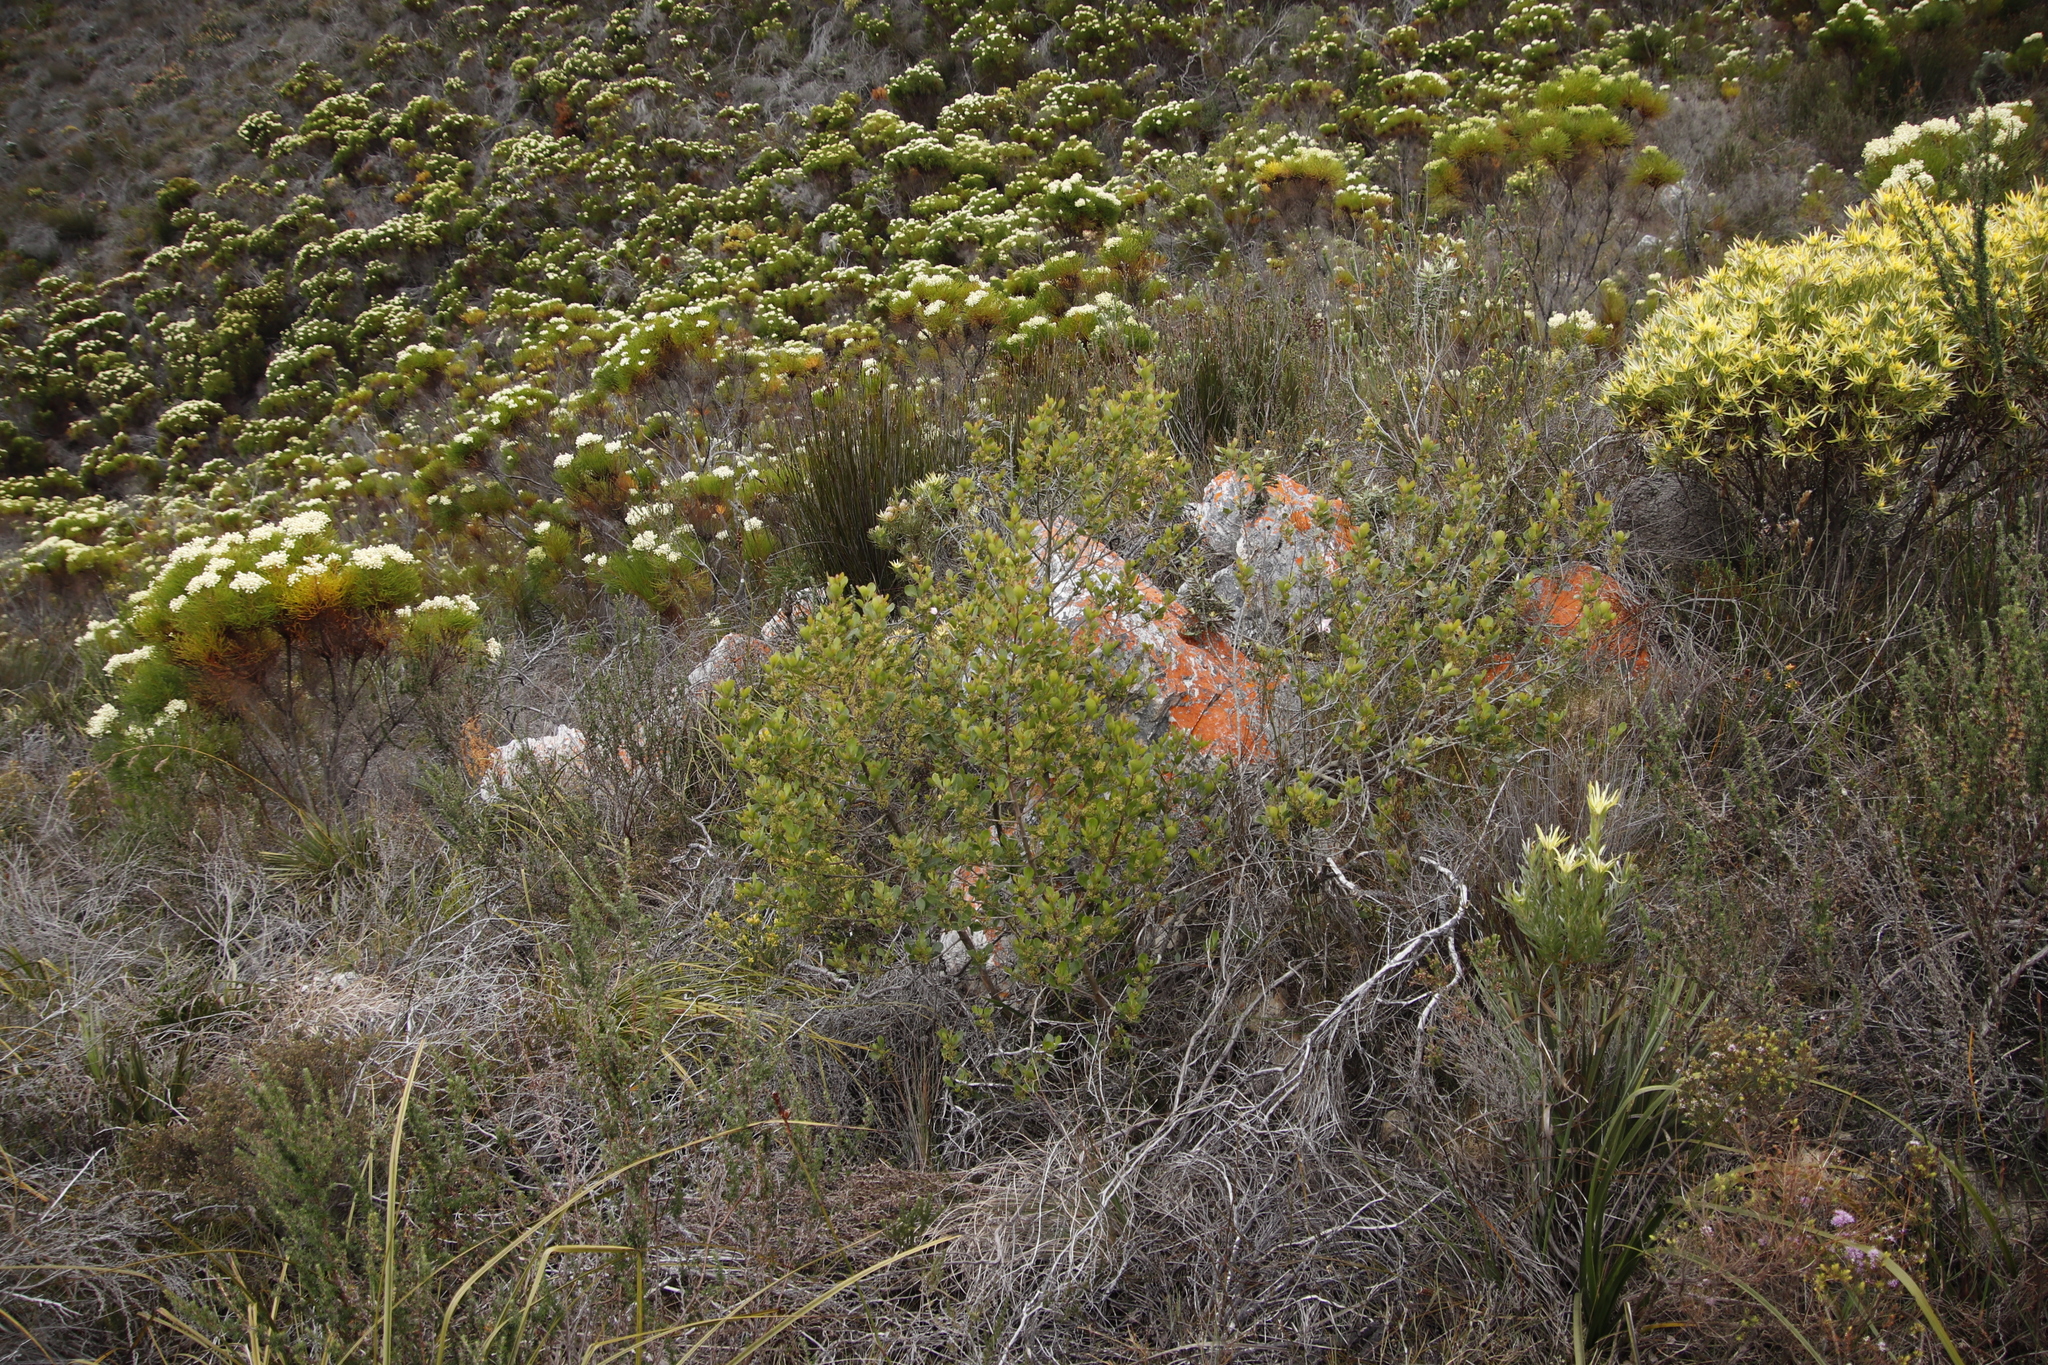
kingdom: Plantae
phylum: Tracheophyta
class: Magnoliopsida
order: Sapindales
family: Anacardiaceae
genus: Searsia
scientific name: Searsia lucida
